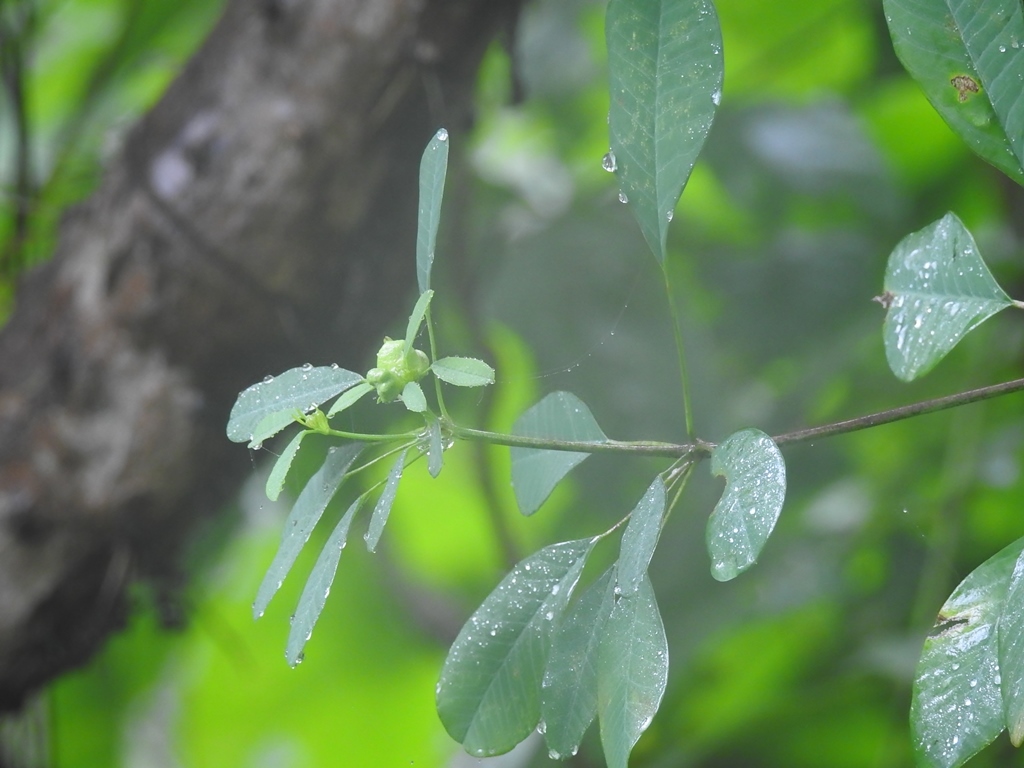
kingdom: Plantae
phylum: Tracheophyta
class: Magnoliopsida
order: Malpighiales
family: Euphorbiaceae
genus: Euphorbia
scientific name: Euphorbia leucocephala
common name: Pascuita
